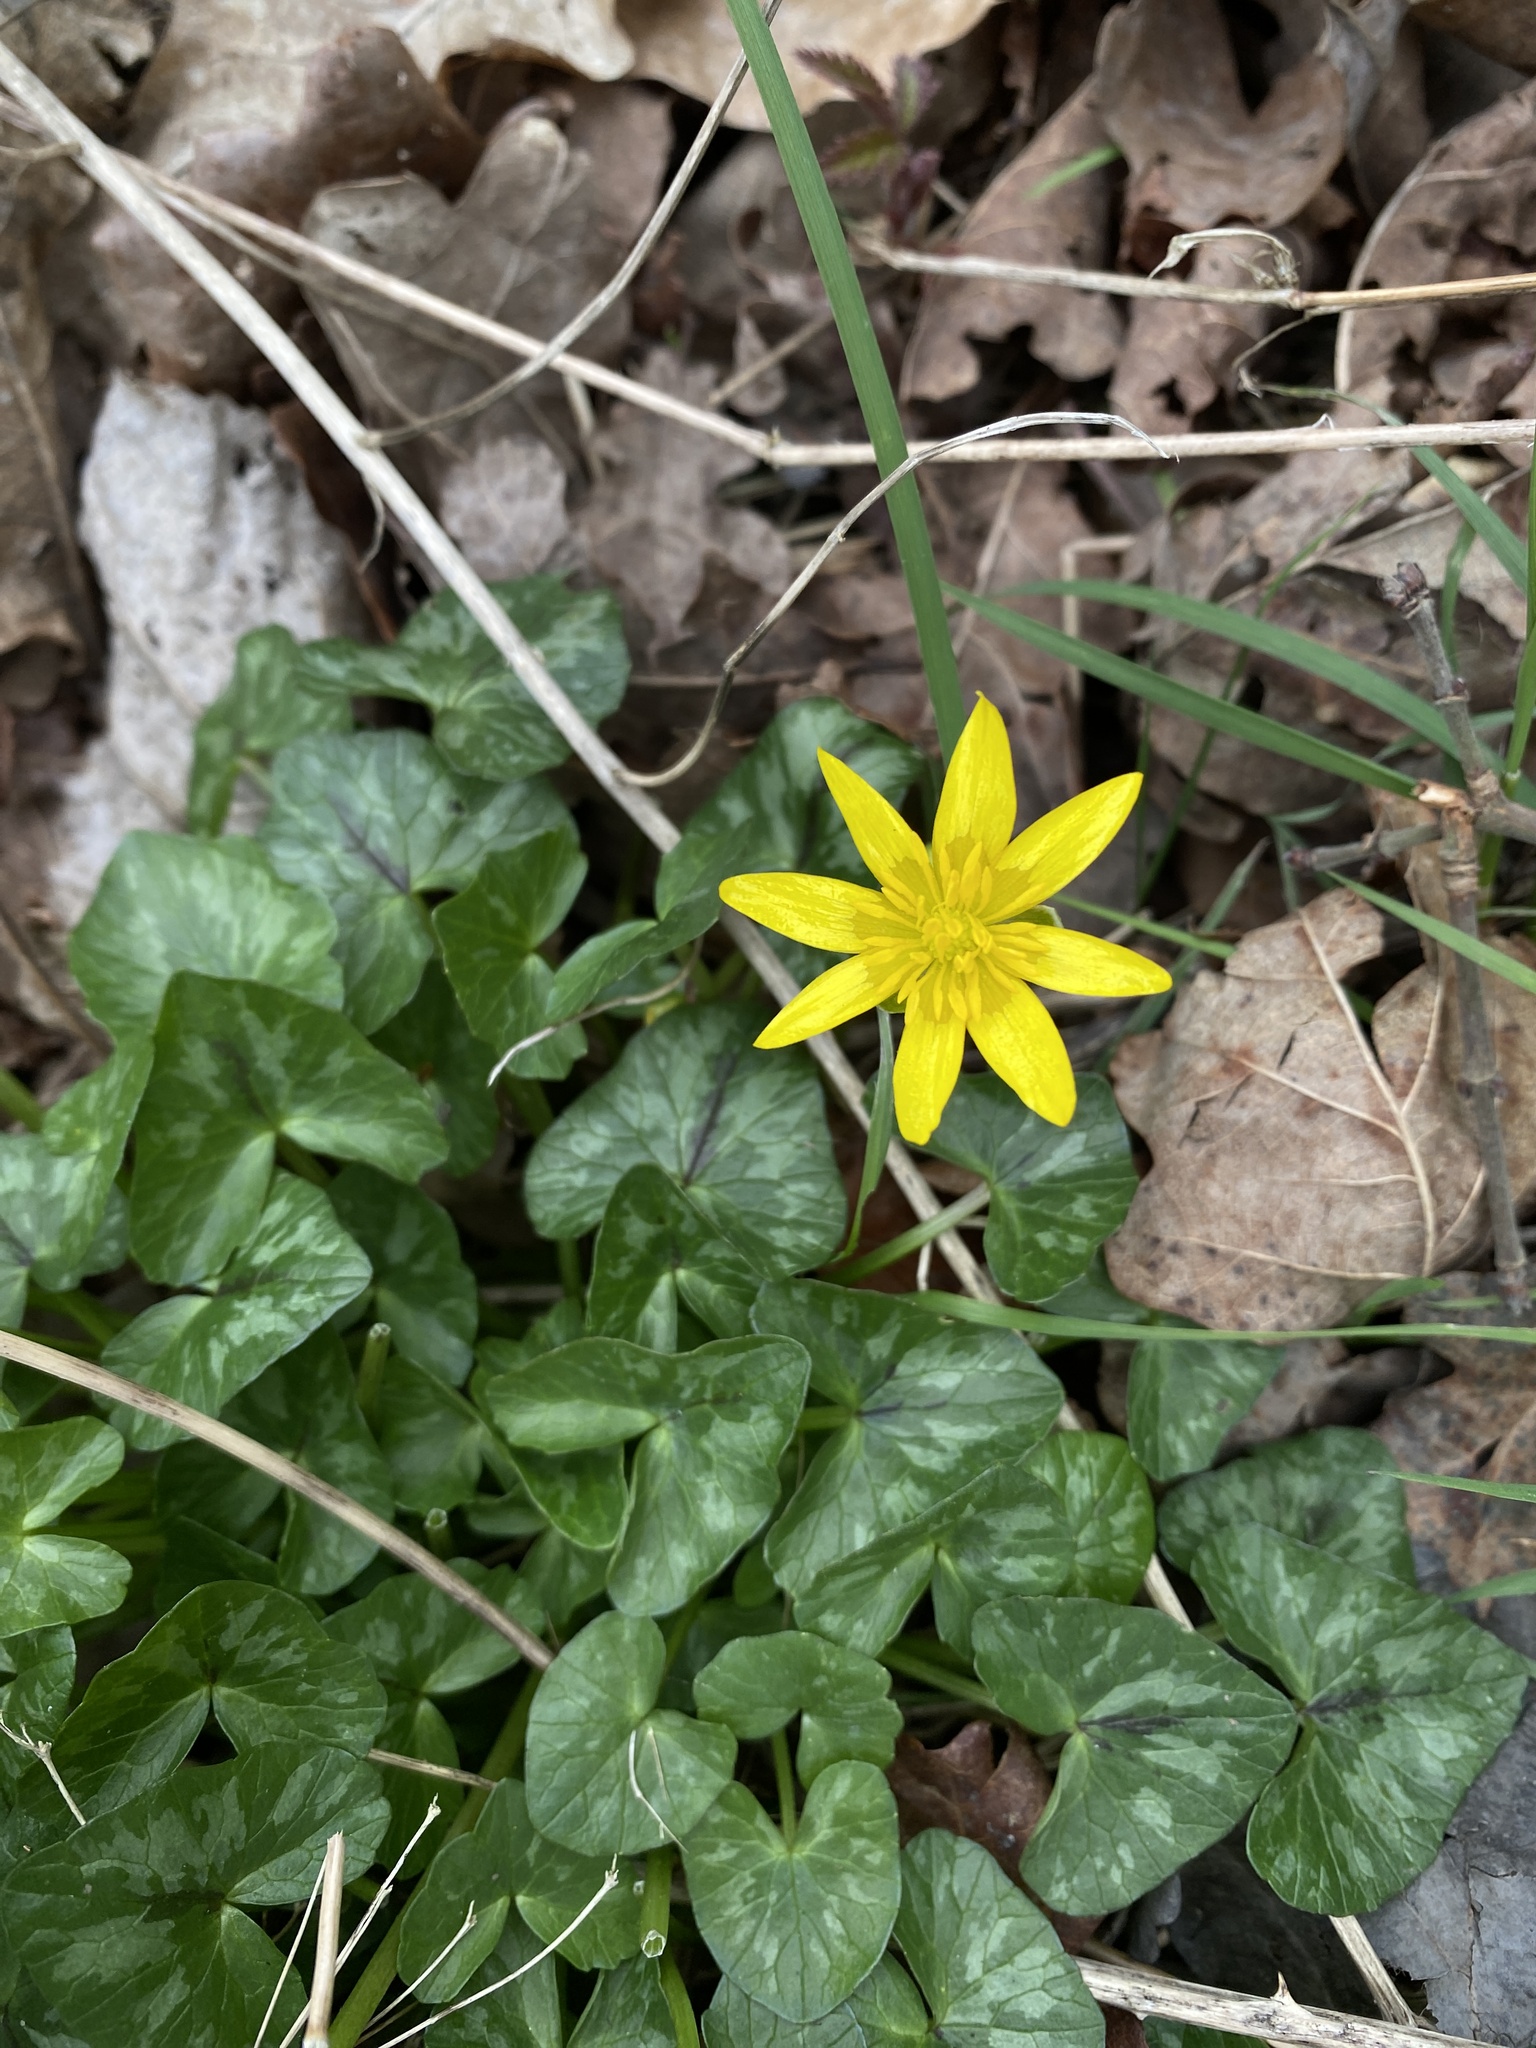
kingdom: Plantae
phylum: Tracheophyta
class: Magnoliopsida
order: Ranunculales
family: Ranunculaceae
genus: Ficaria
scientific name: Ficaria verna
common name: Lesser celandine
